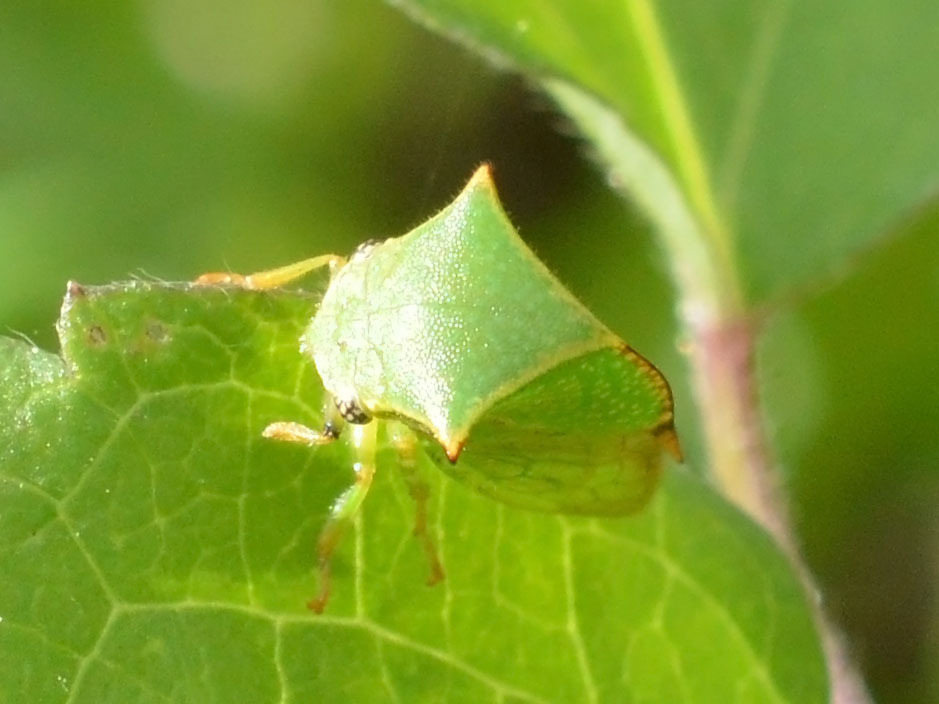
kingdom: Animalia
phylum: Arthropoda
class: Insecta
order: Hemiptera
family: Membracidae
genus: Stictocephala
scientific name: Stictocephala bisonia
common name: American buffalo treehopper
